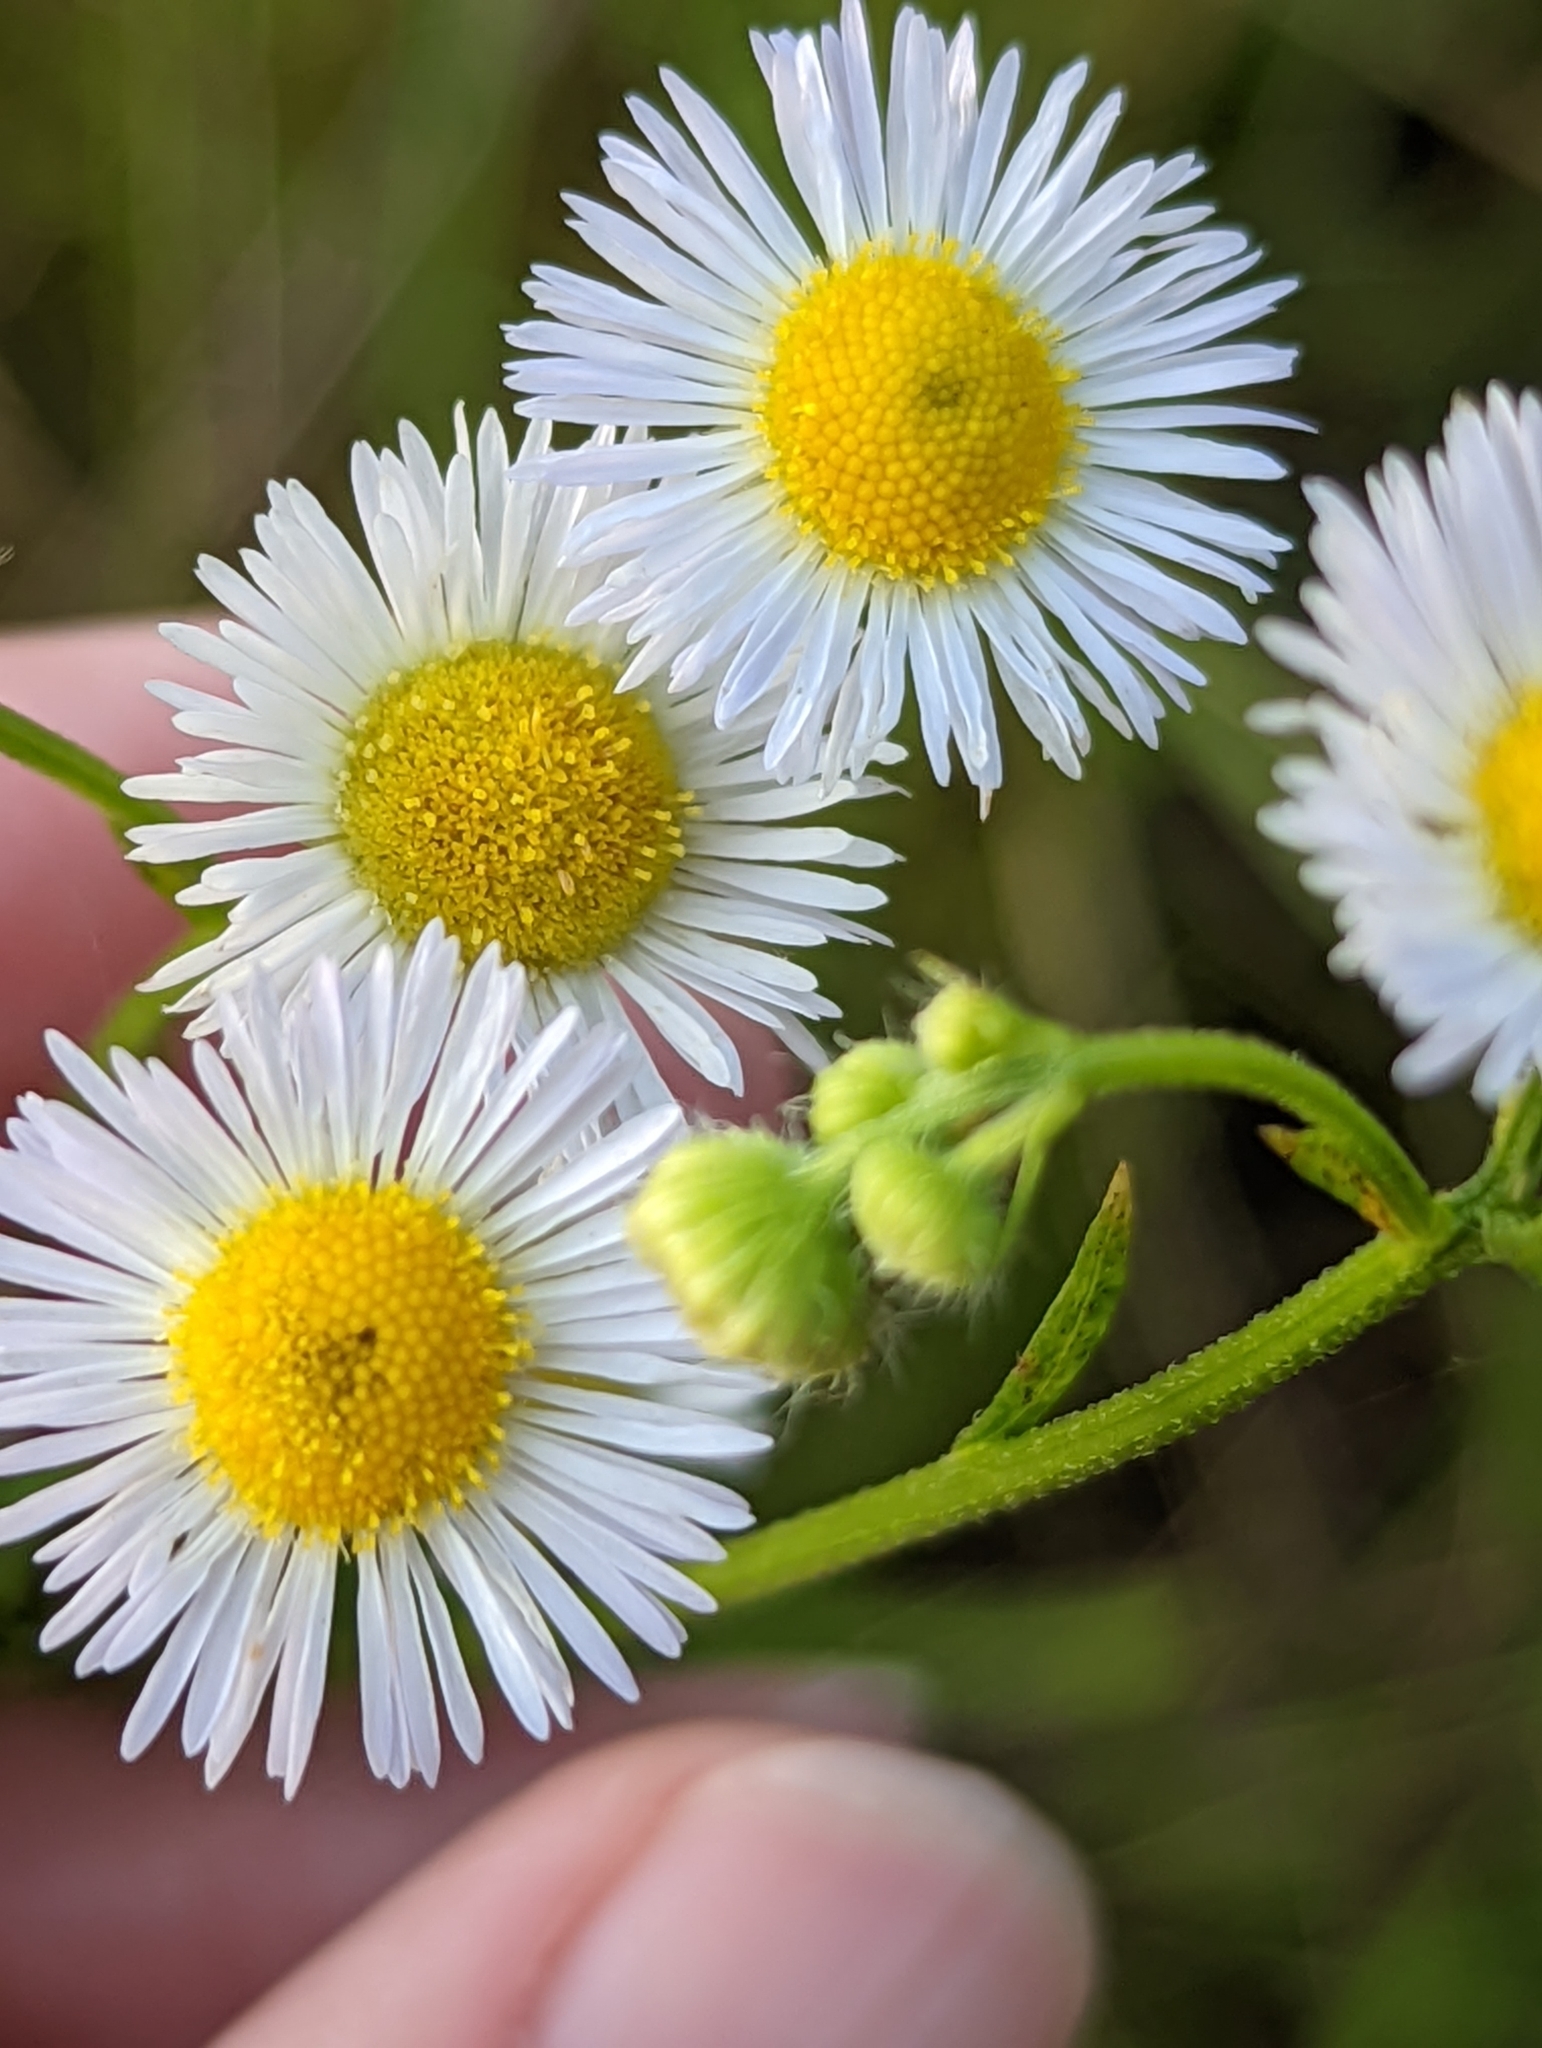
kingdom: Plantae
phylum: Tracheophyta
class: Magnoliopsida
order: Asterales
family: Asteraceae
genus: Erigeron
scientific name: Erigeron annuus
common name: Tall fleabane
